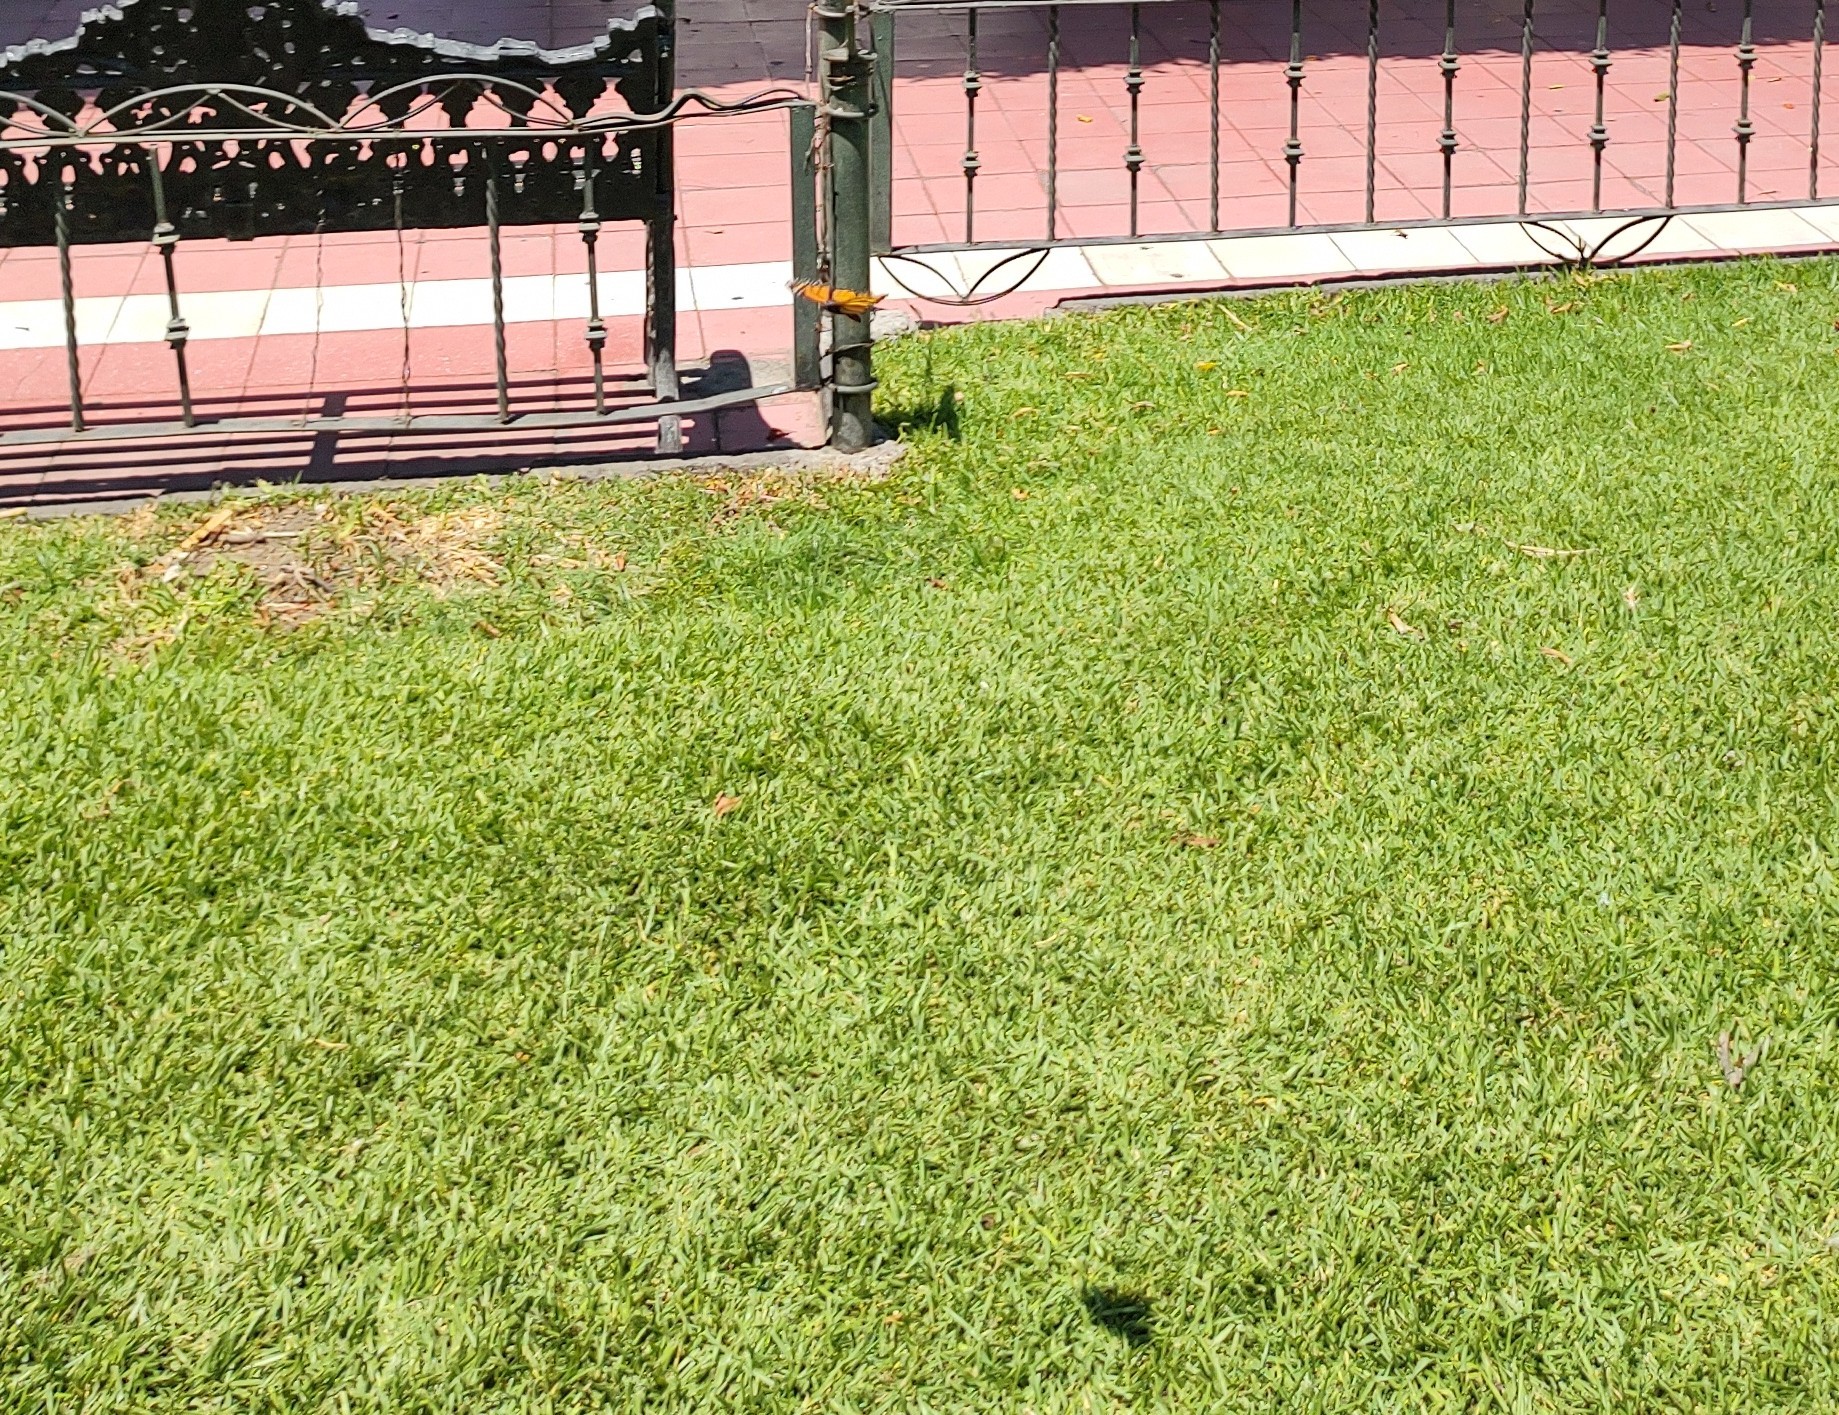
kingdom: Animalia
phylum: Arthropoda
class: Insecta
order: Lepidoptera
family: Nymphalidae
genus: Danaus
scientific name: Danaus plexippus
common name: Monarch
